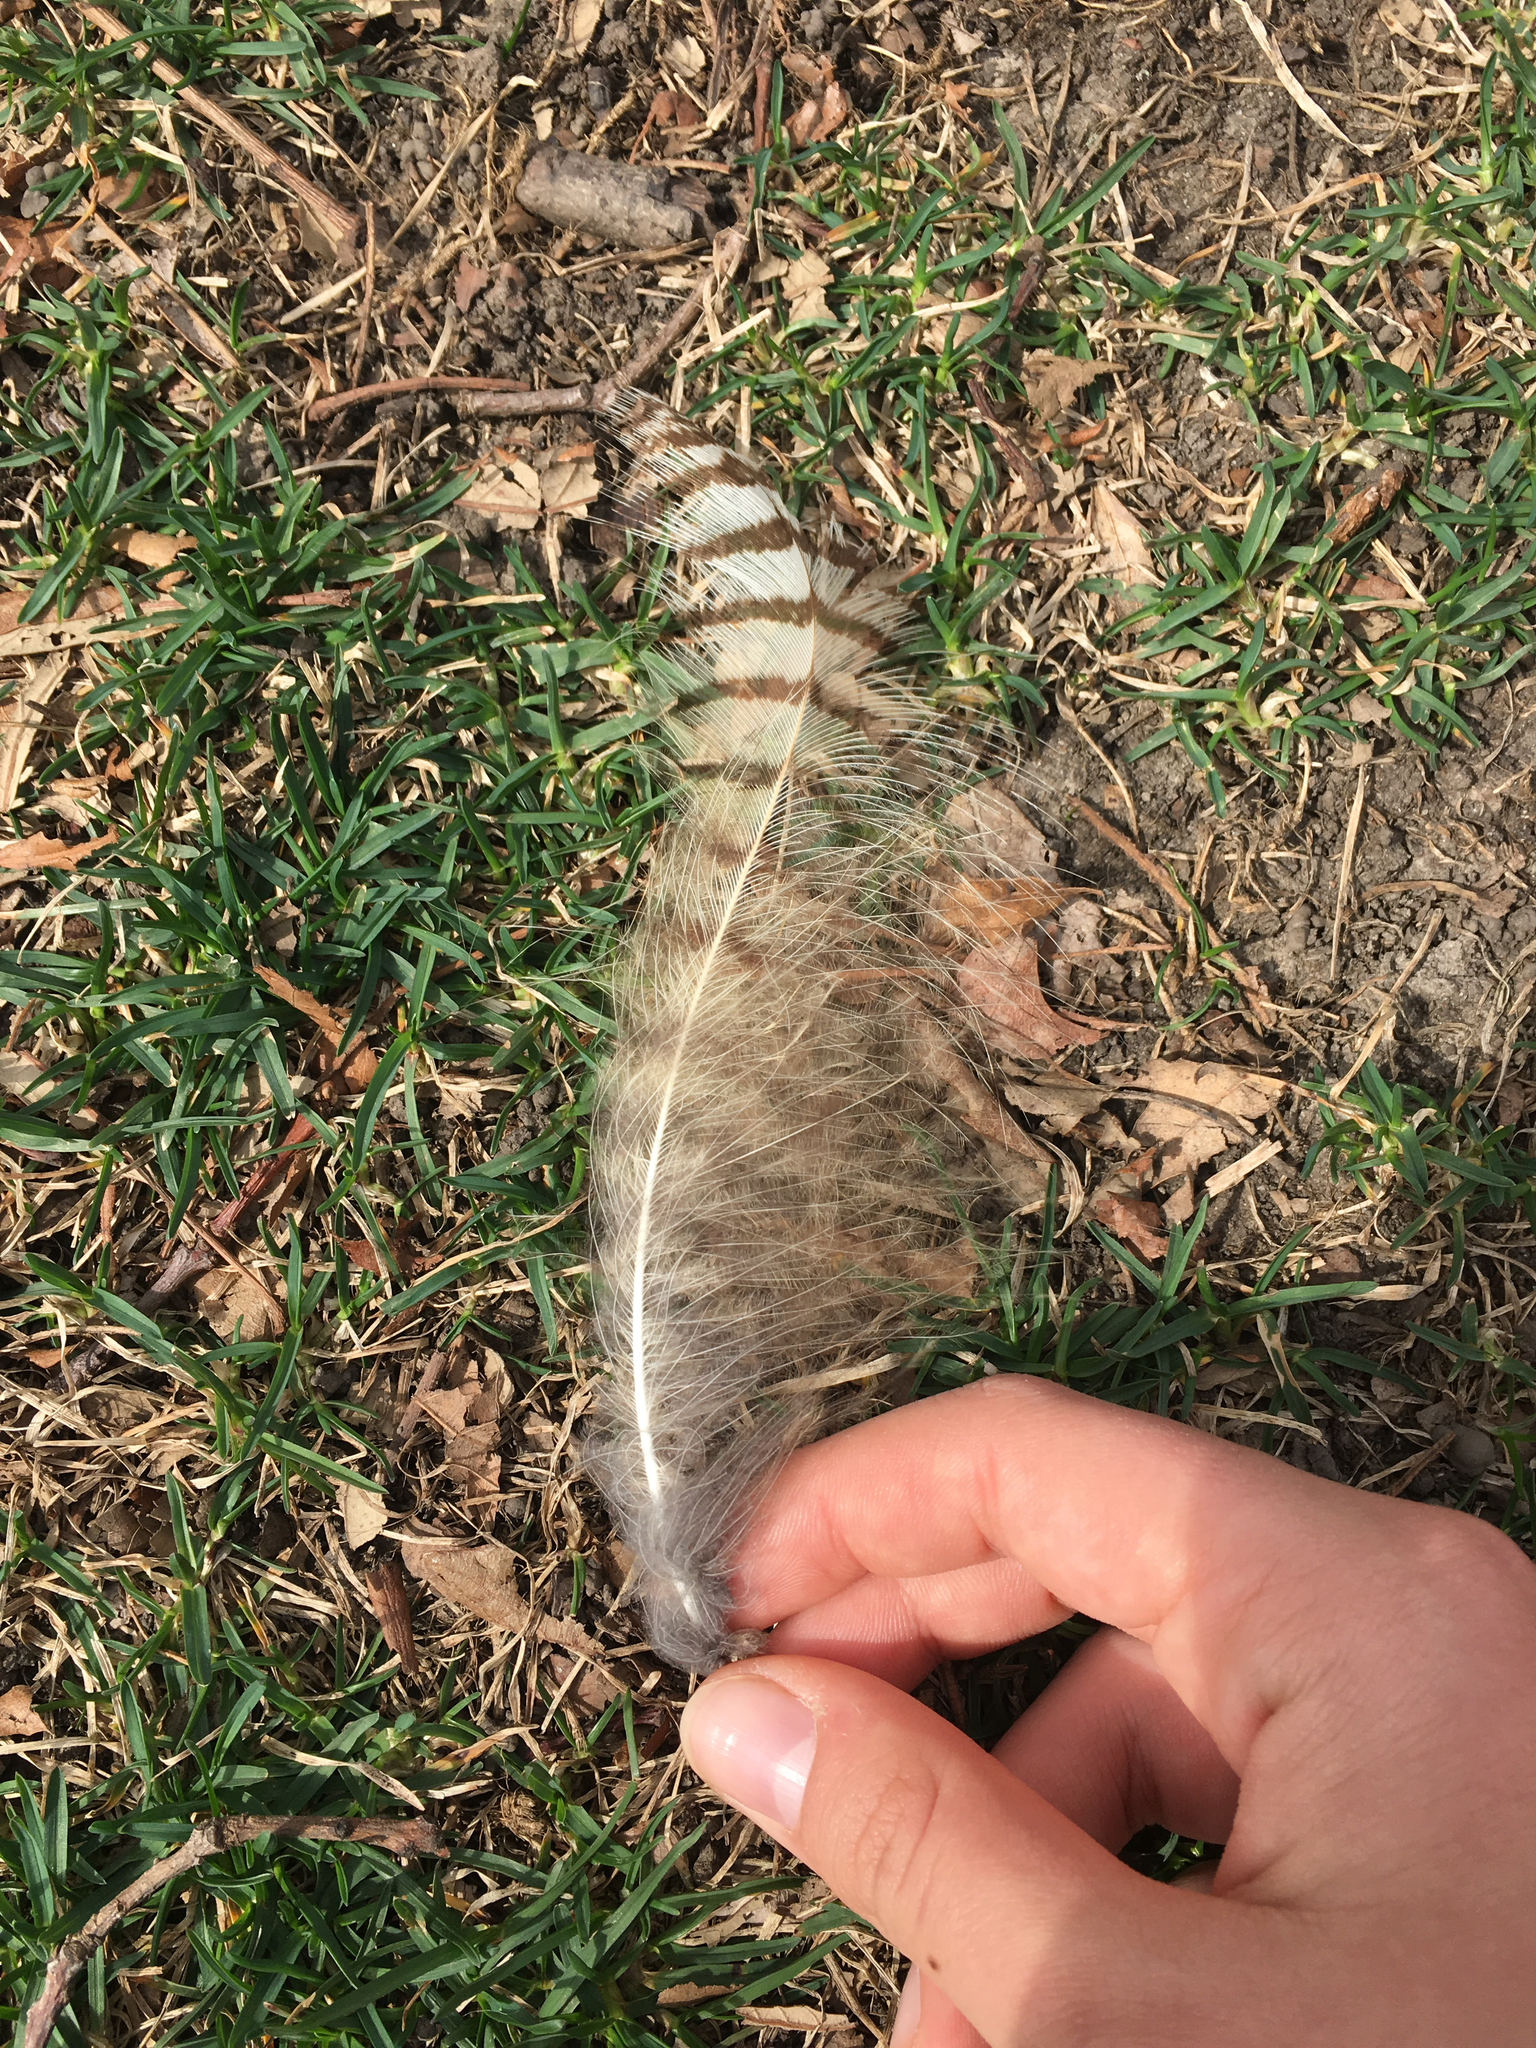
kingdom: Animalia
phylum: Chordata
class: Aves
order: Strigiformes
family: Strigidae
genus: Bubo
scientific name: Bubo virginianus
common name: Great horned owl
